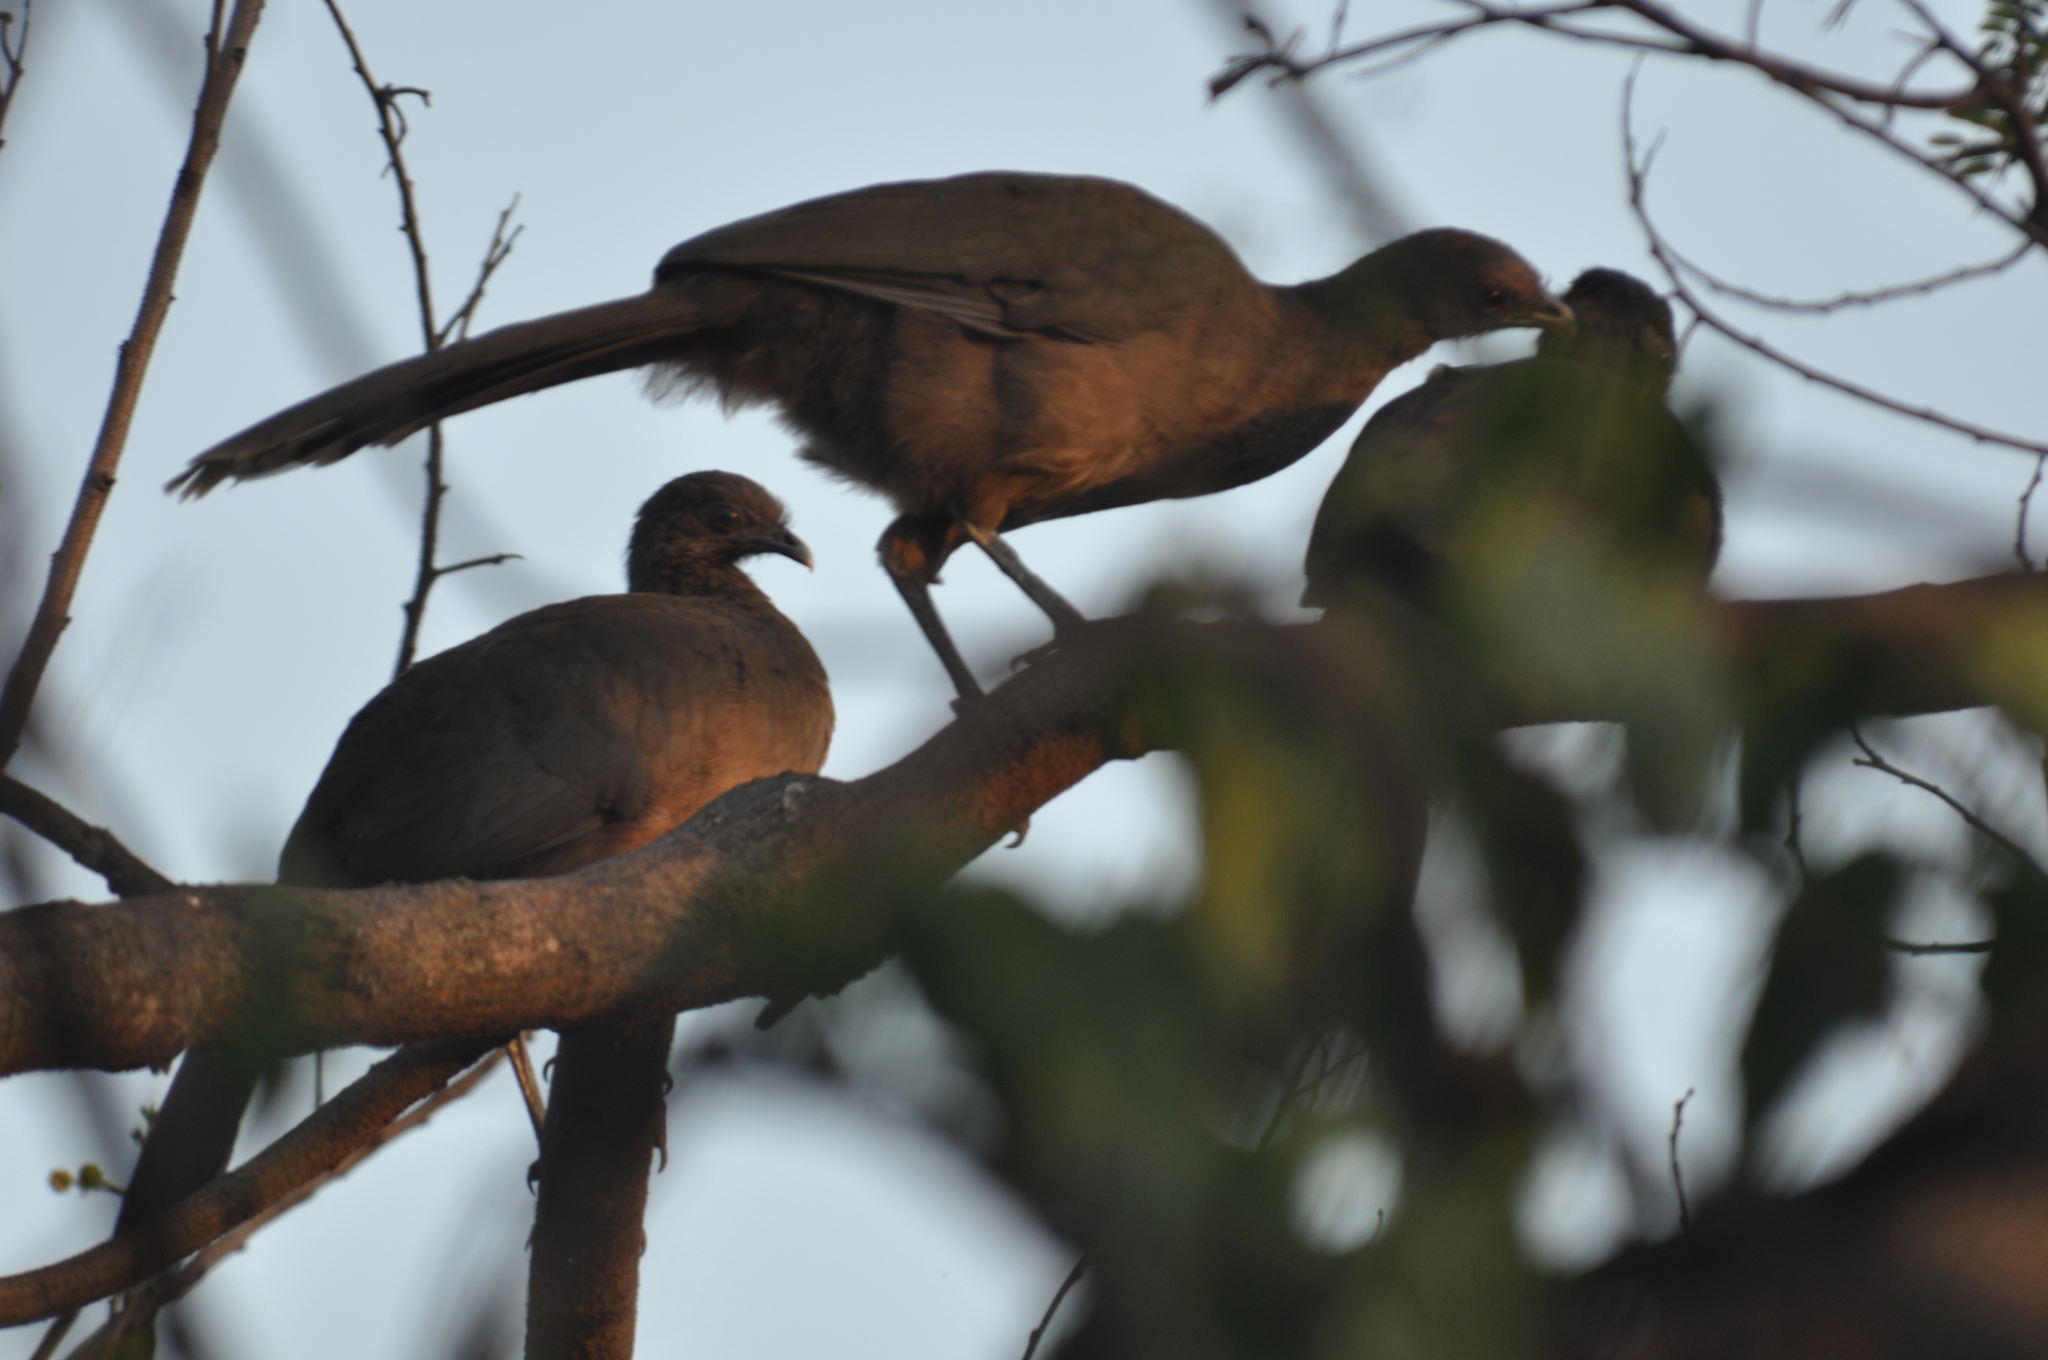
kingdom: Animalia
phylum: Chordata
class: Aves
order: Galliformes
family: Cracidae
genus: Ortalis
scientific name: Ortalis vetula
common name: Plain chachalaca
